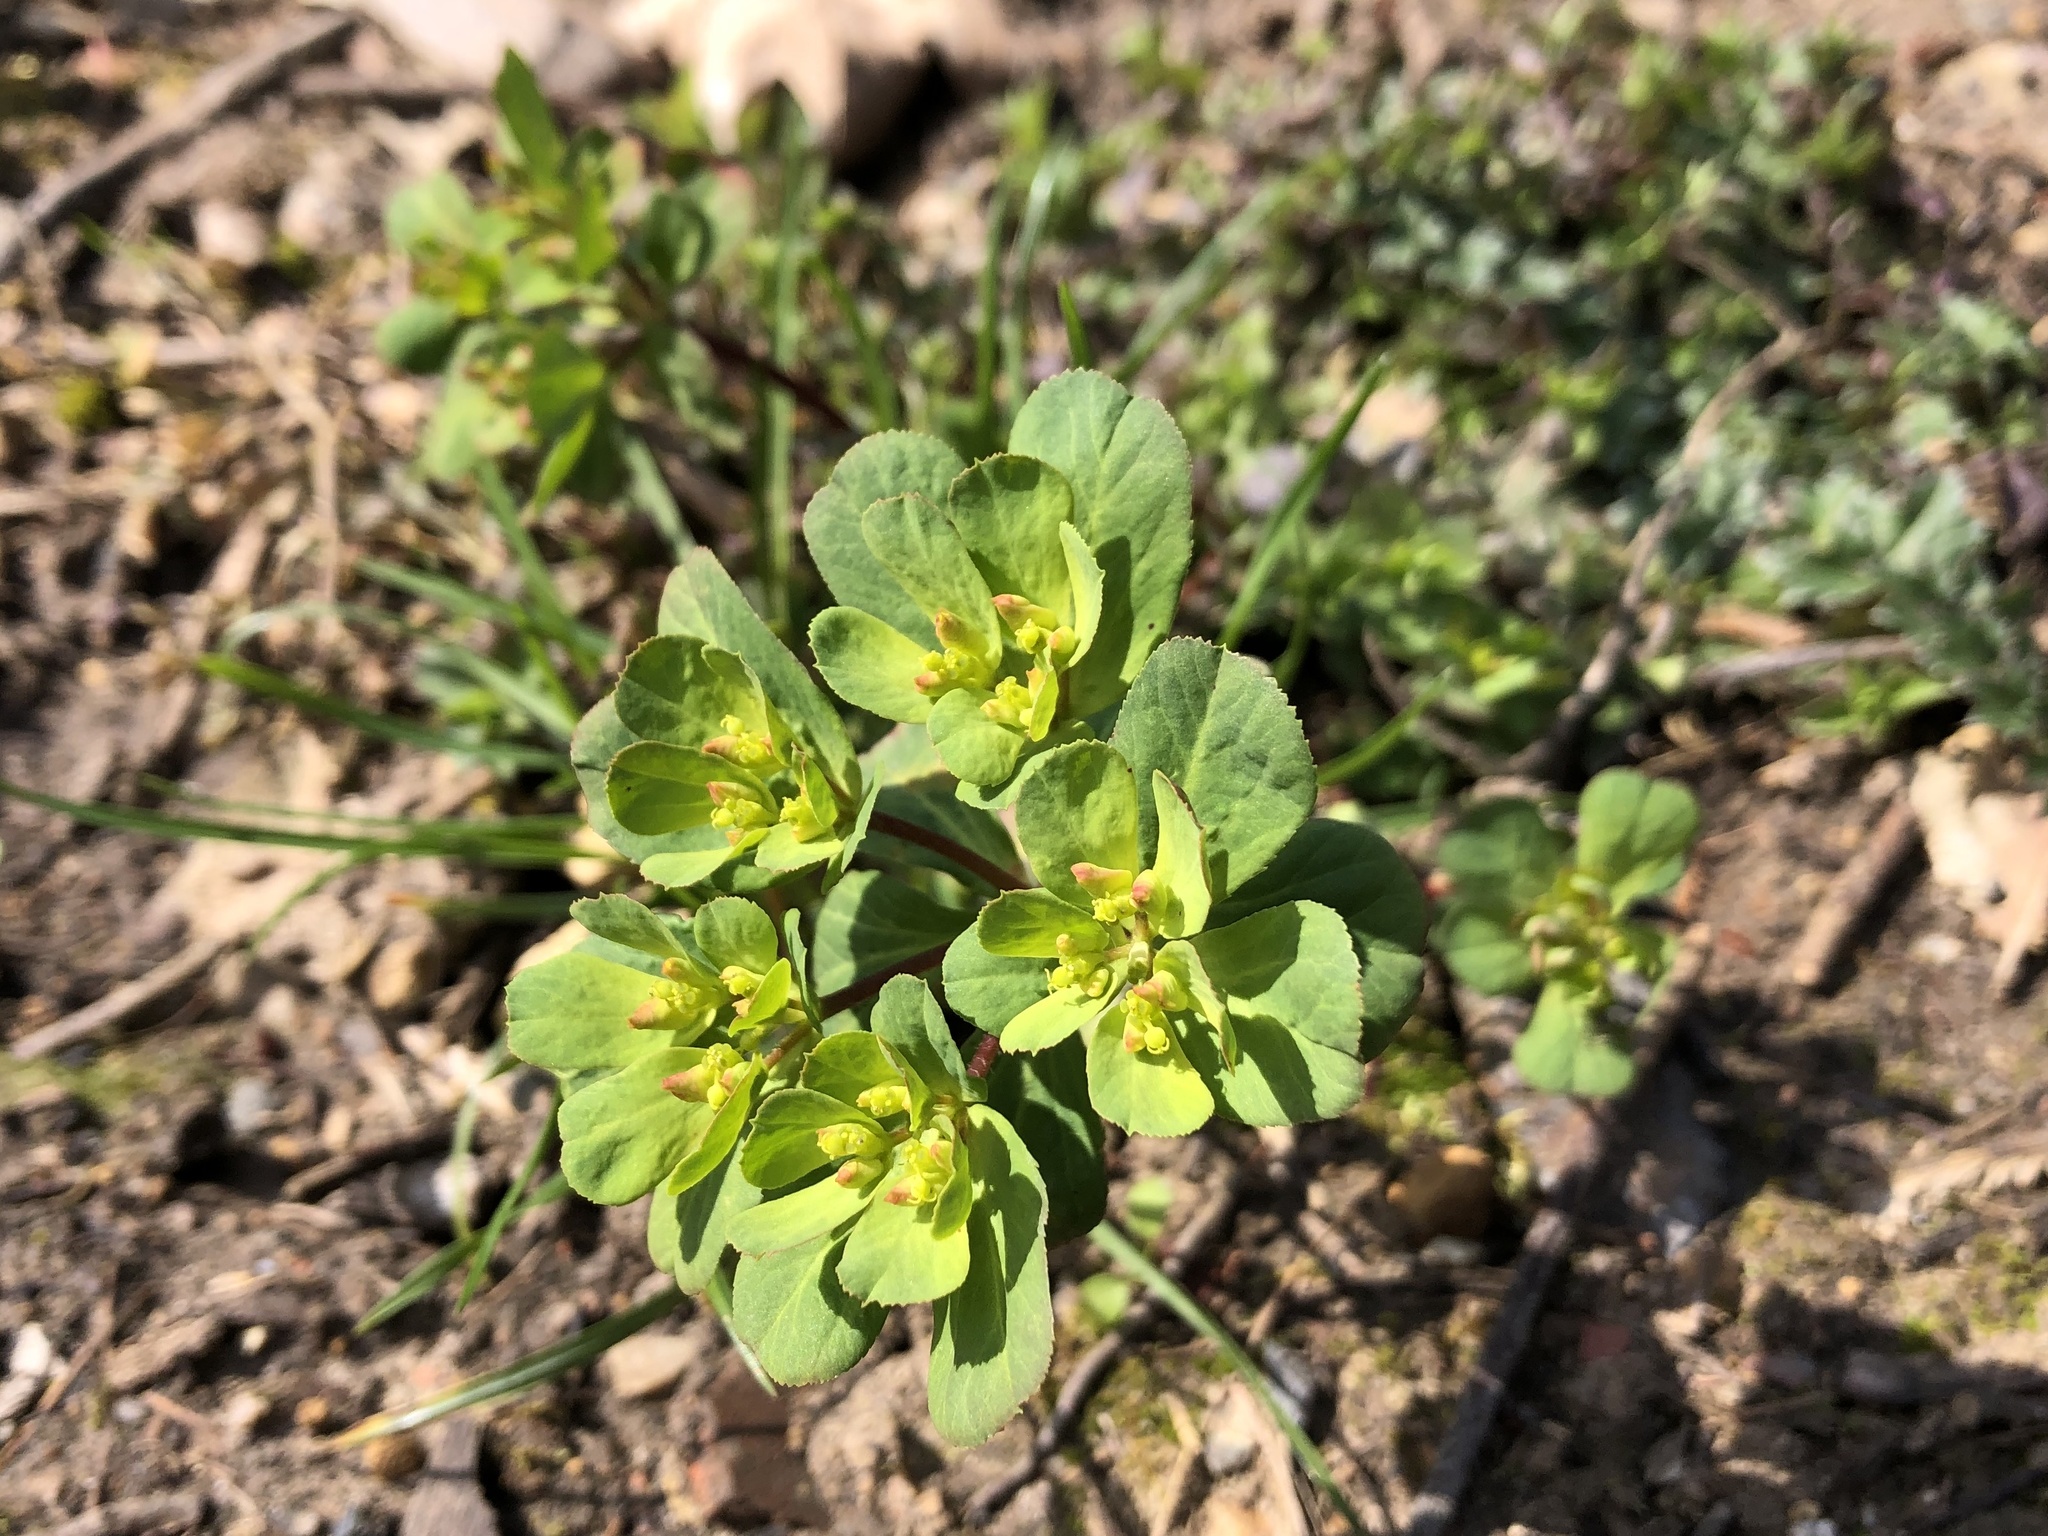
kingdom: Plantae
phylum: Tracheophyta
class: Magnoliopsida
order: Malpighiales
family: Euphorbiaceae
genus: Euphorbia
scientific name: Euphorbia helioscopia
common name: Sun spurge
